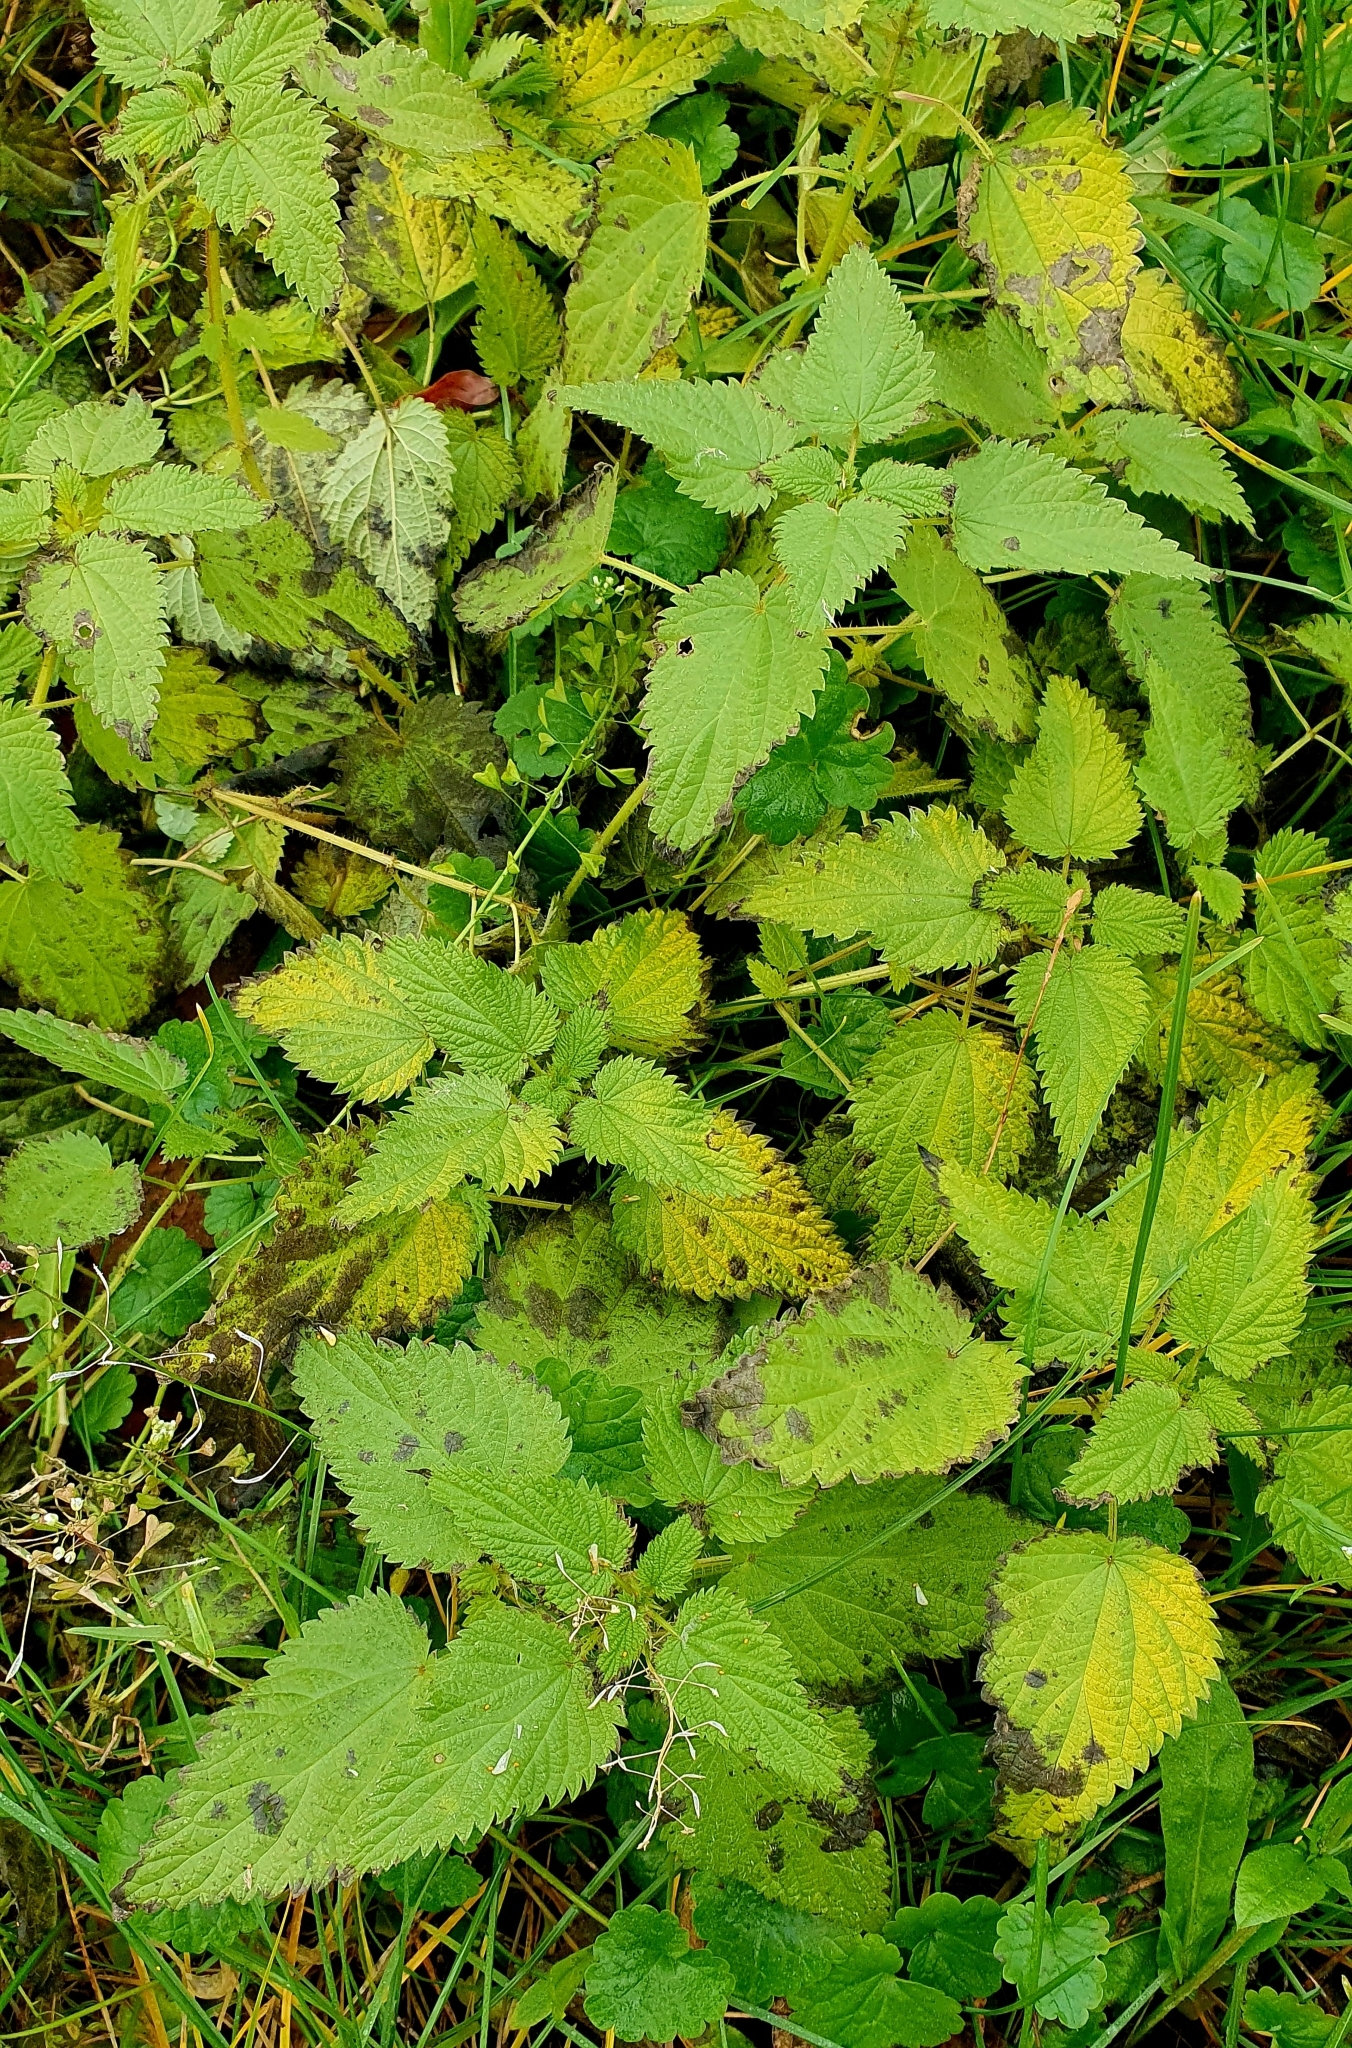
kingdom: Plantae
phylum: Tracheophyta
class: Magnoliopsida
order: Rosales
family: Urticaceae
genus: Urtica
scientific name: Urtica dioica
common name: Common nettle
